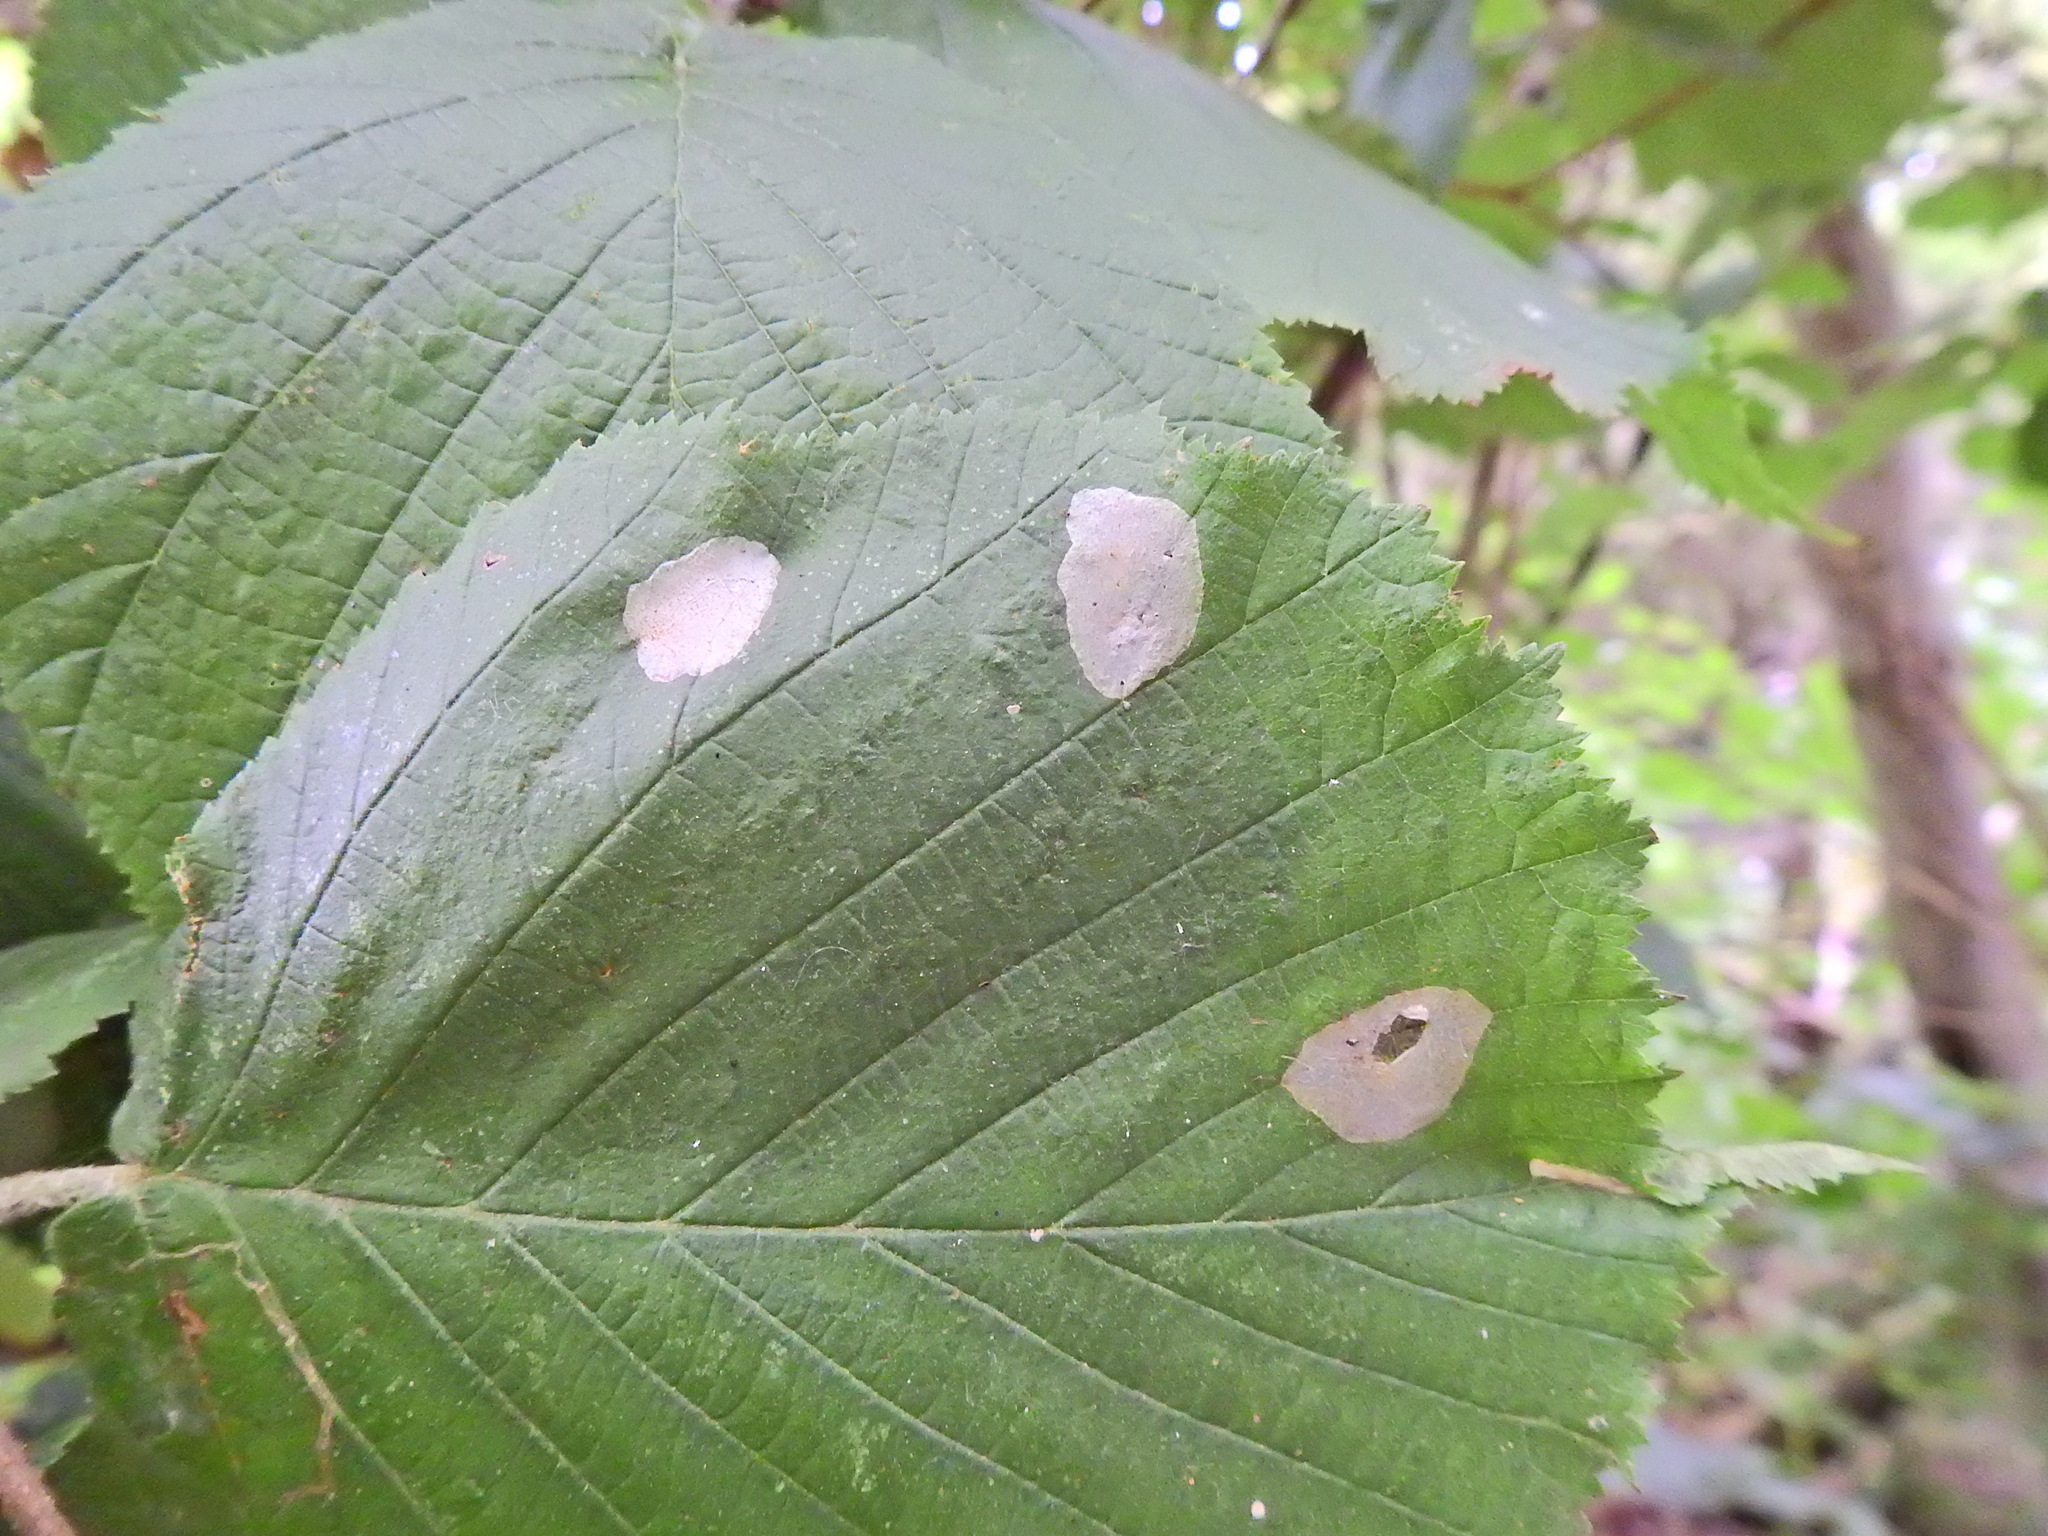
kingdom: Animalia
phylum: Arthropoda
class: Insecta
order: Lepidoptera
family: Gracillariidae
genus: Phyllonorycter
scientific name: Phyllonorycter coryli
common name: Nut-leaf blister moth
